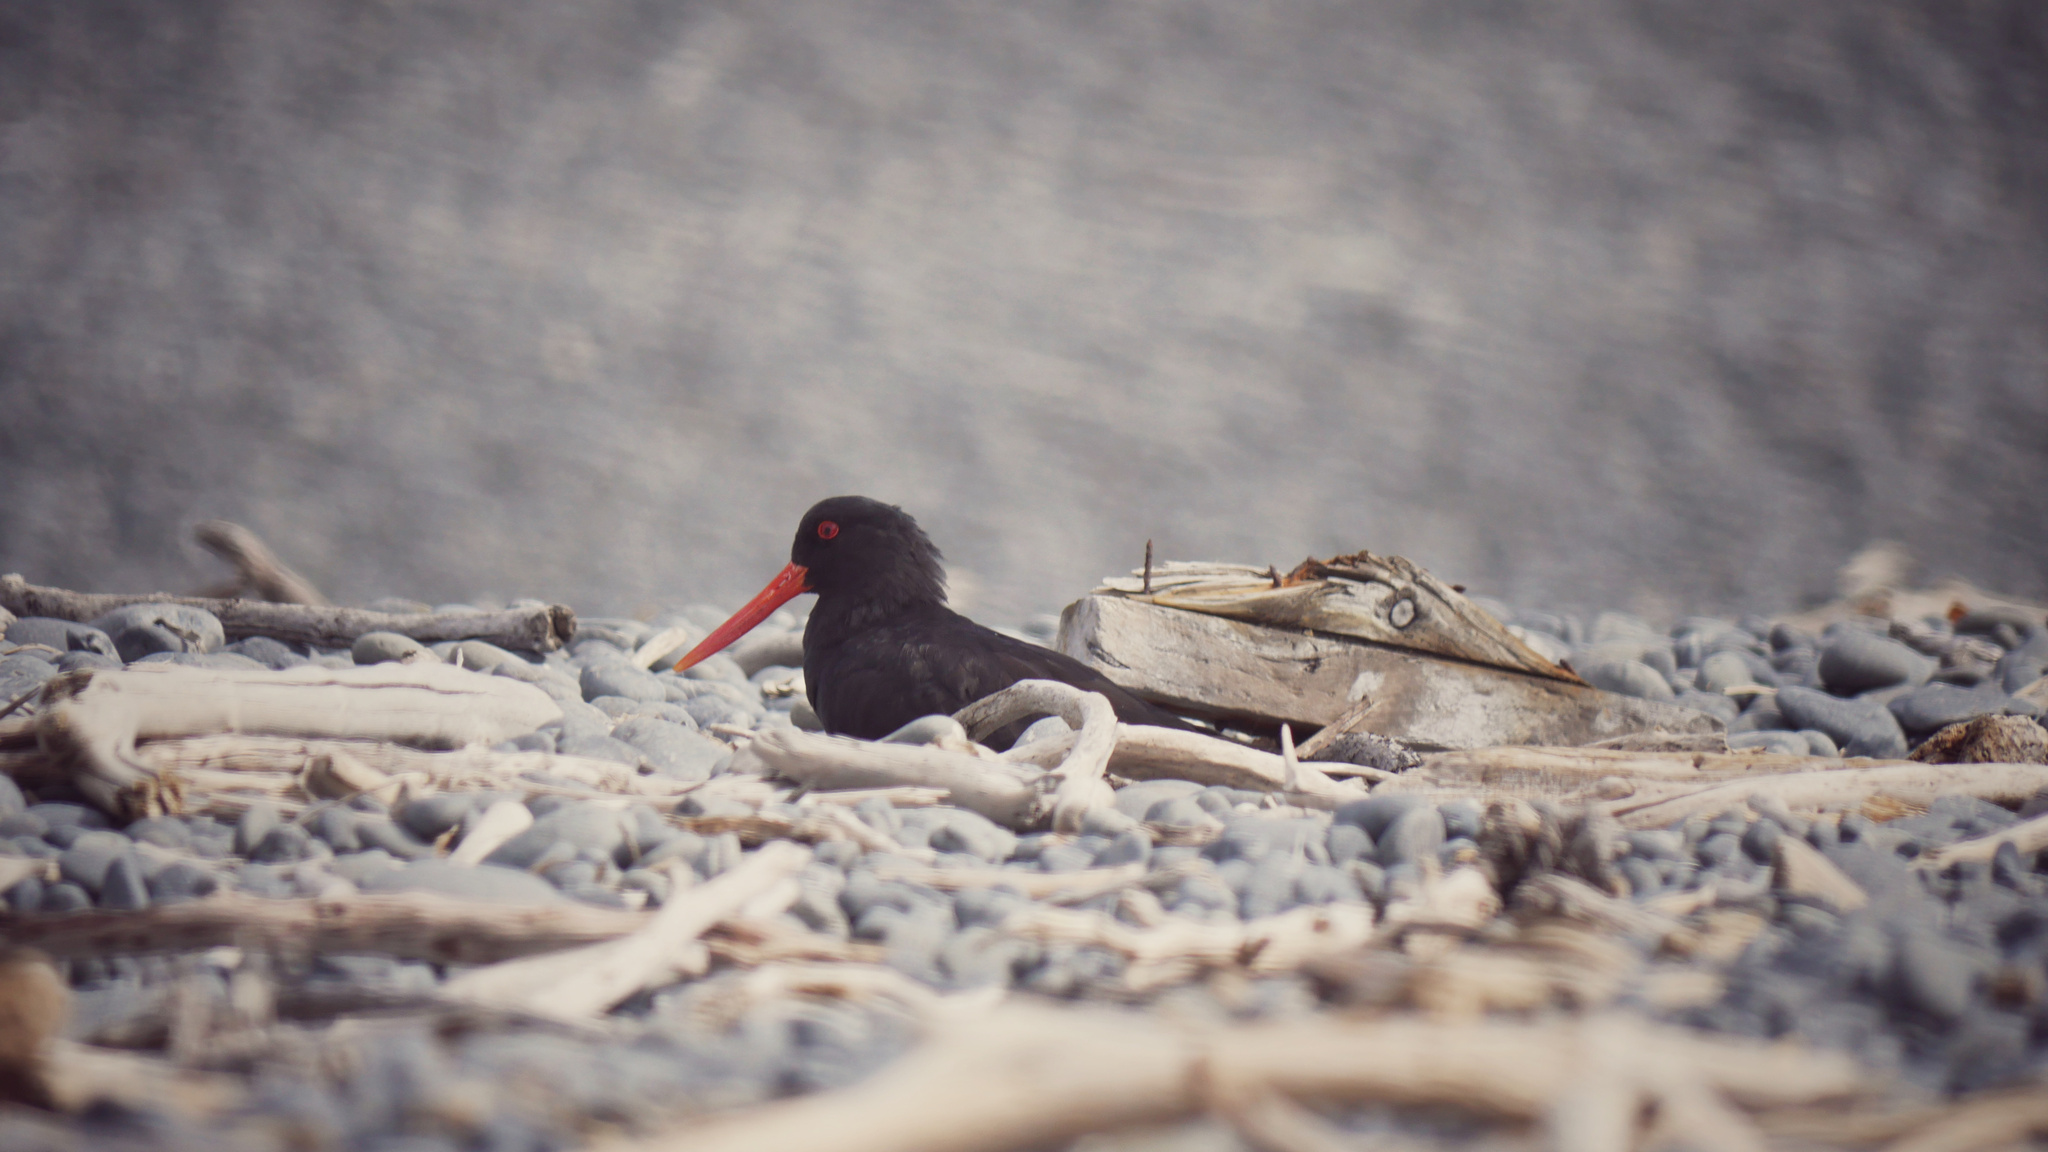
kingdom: Animalia
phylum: Chordata
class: Aves
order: Charadriiformes
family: Haematopodidae
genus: Haematopus
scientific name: Haematopus unicolor
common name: Variable oystercatcher
